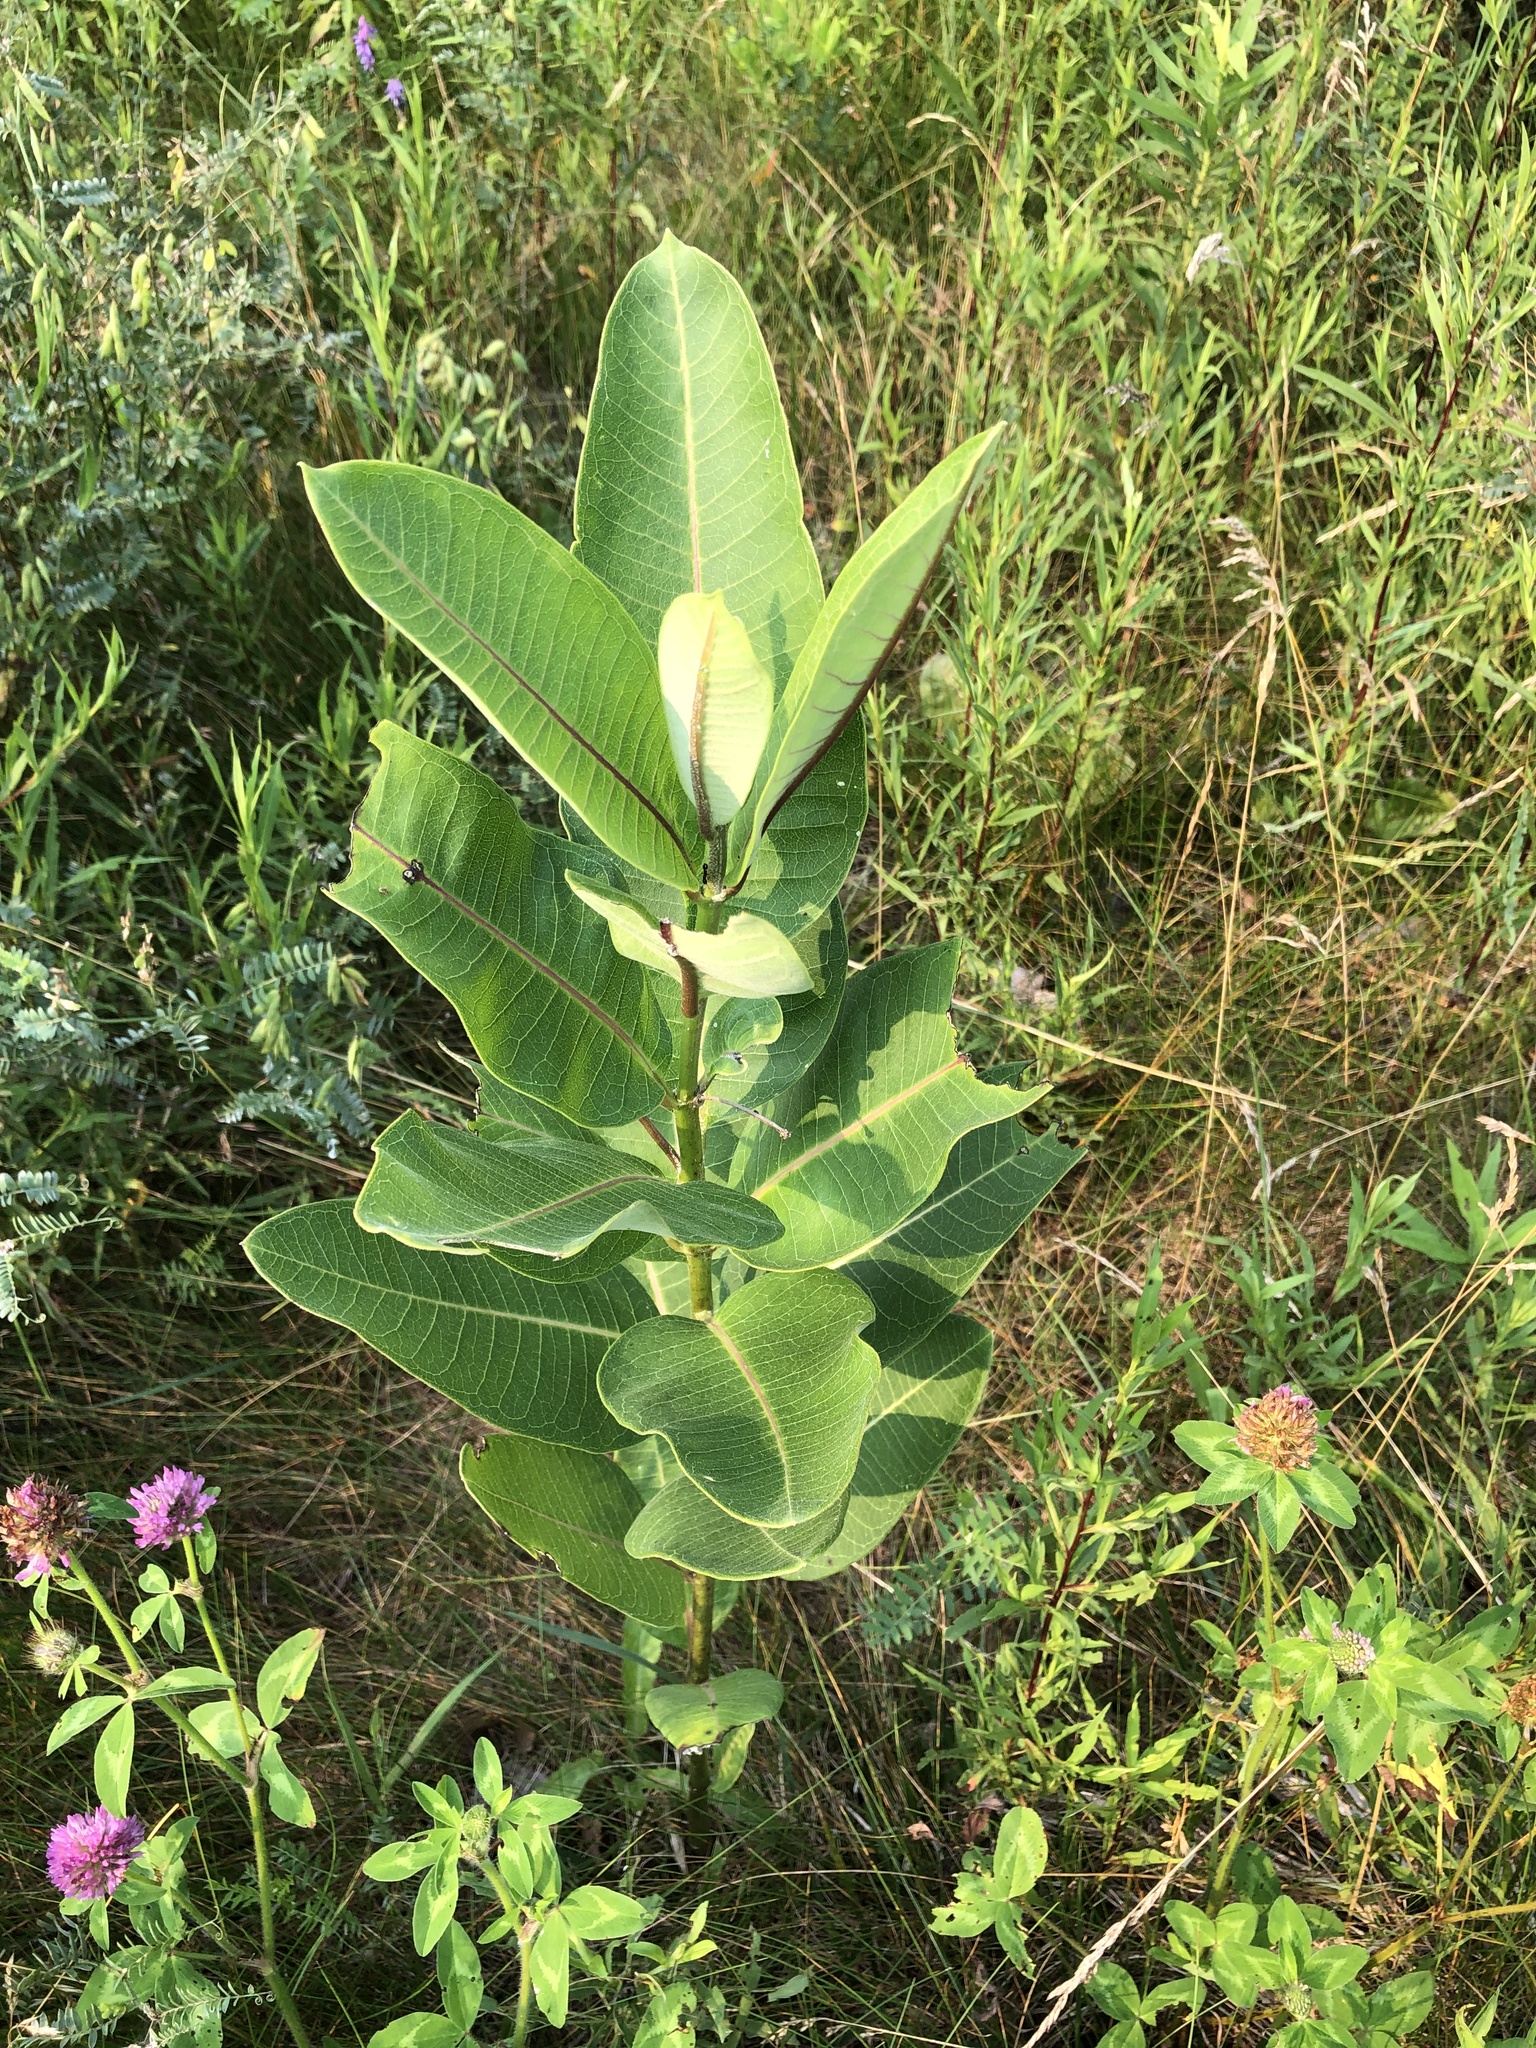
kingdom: Plantae
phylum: Tracheophyta
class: Magnoliopsida
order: Gentianales
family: Apocynaceae
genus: Asclepias
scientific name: Asclepias syriaca
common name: Common milkweed
